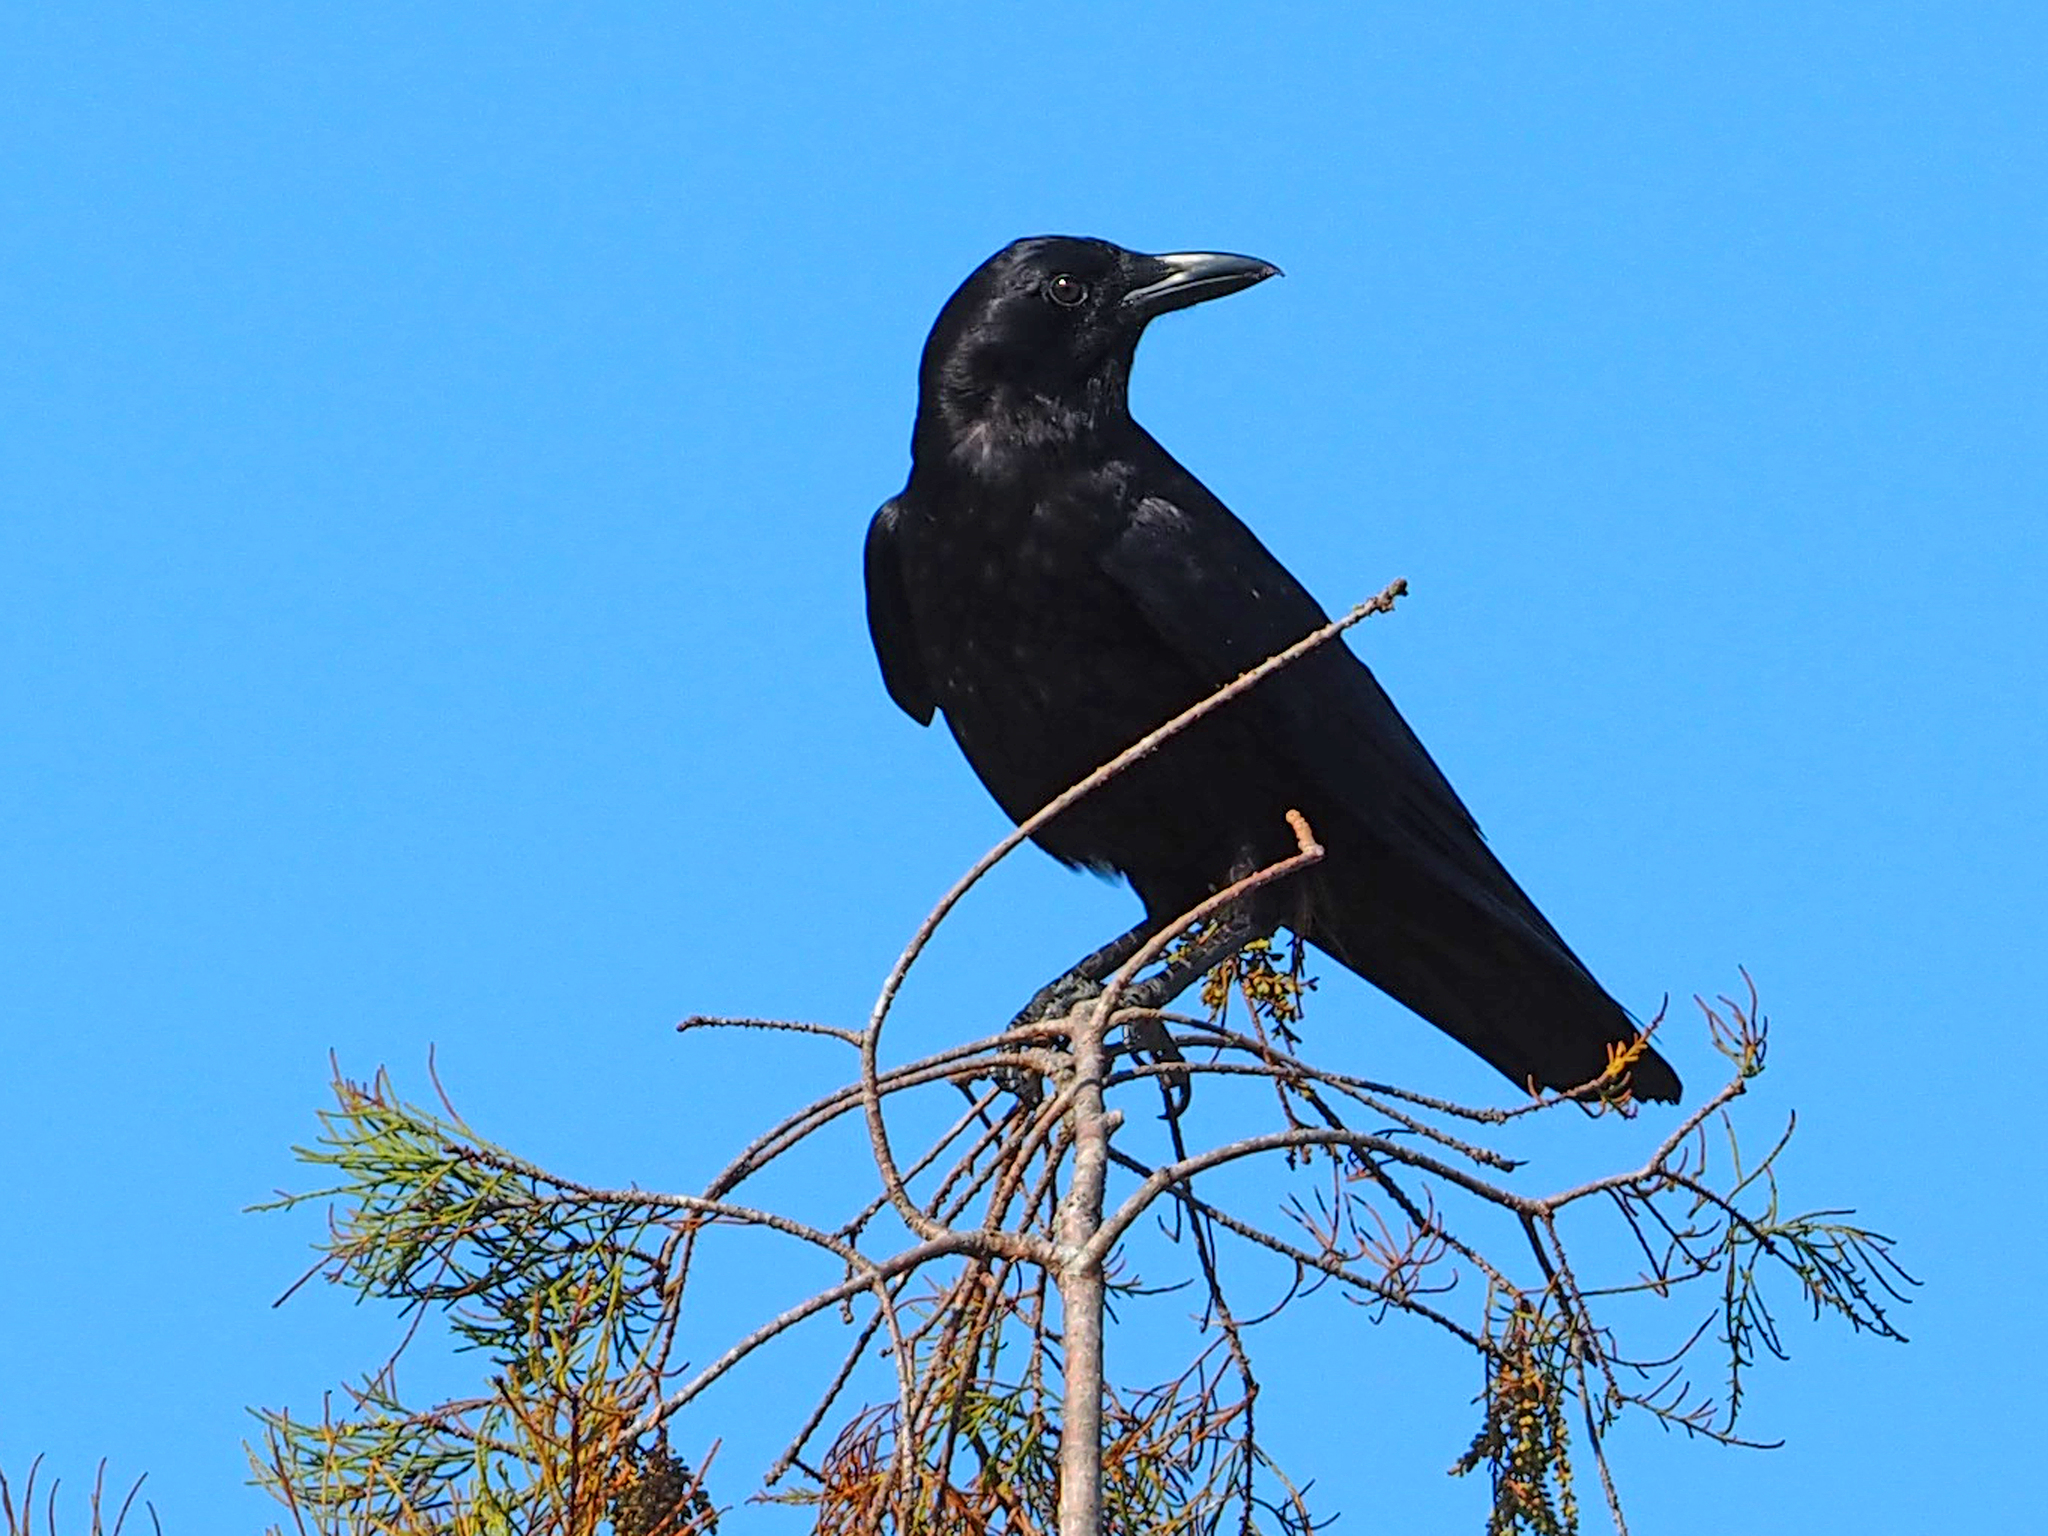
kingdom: Animalia
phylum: Chordata
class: Aves
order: Passeriformes
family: Corvidae
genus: Corvus
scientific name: Corvus brachyrhynchos
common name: American crow
